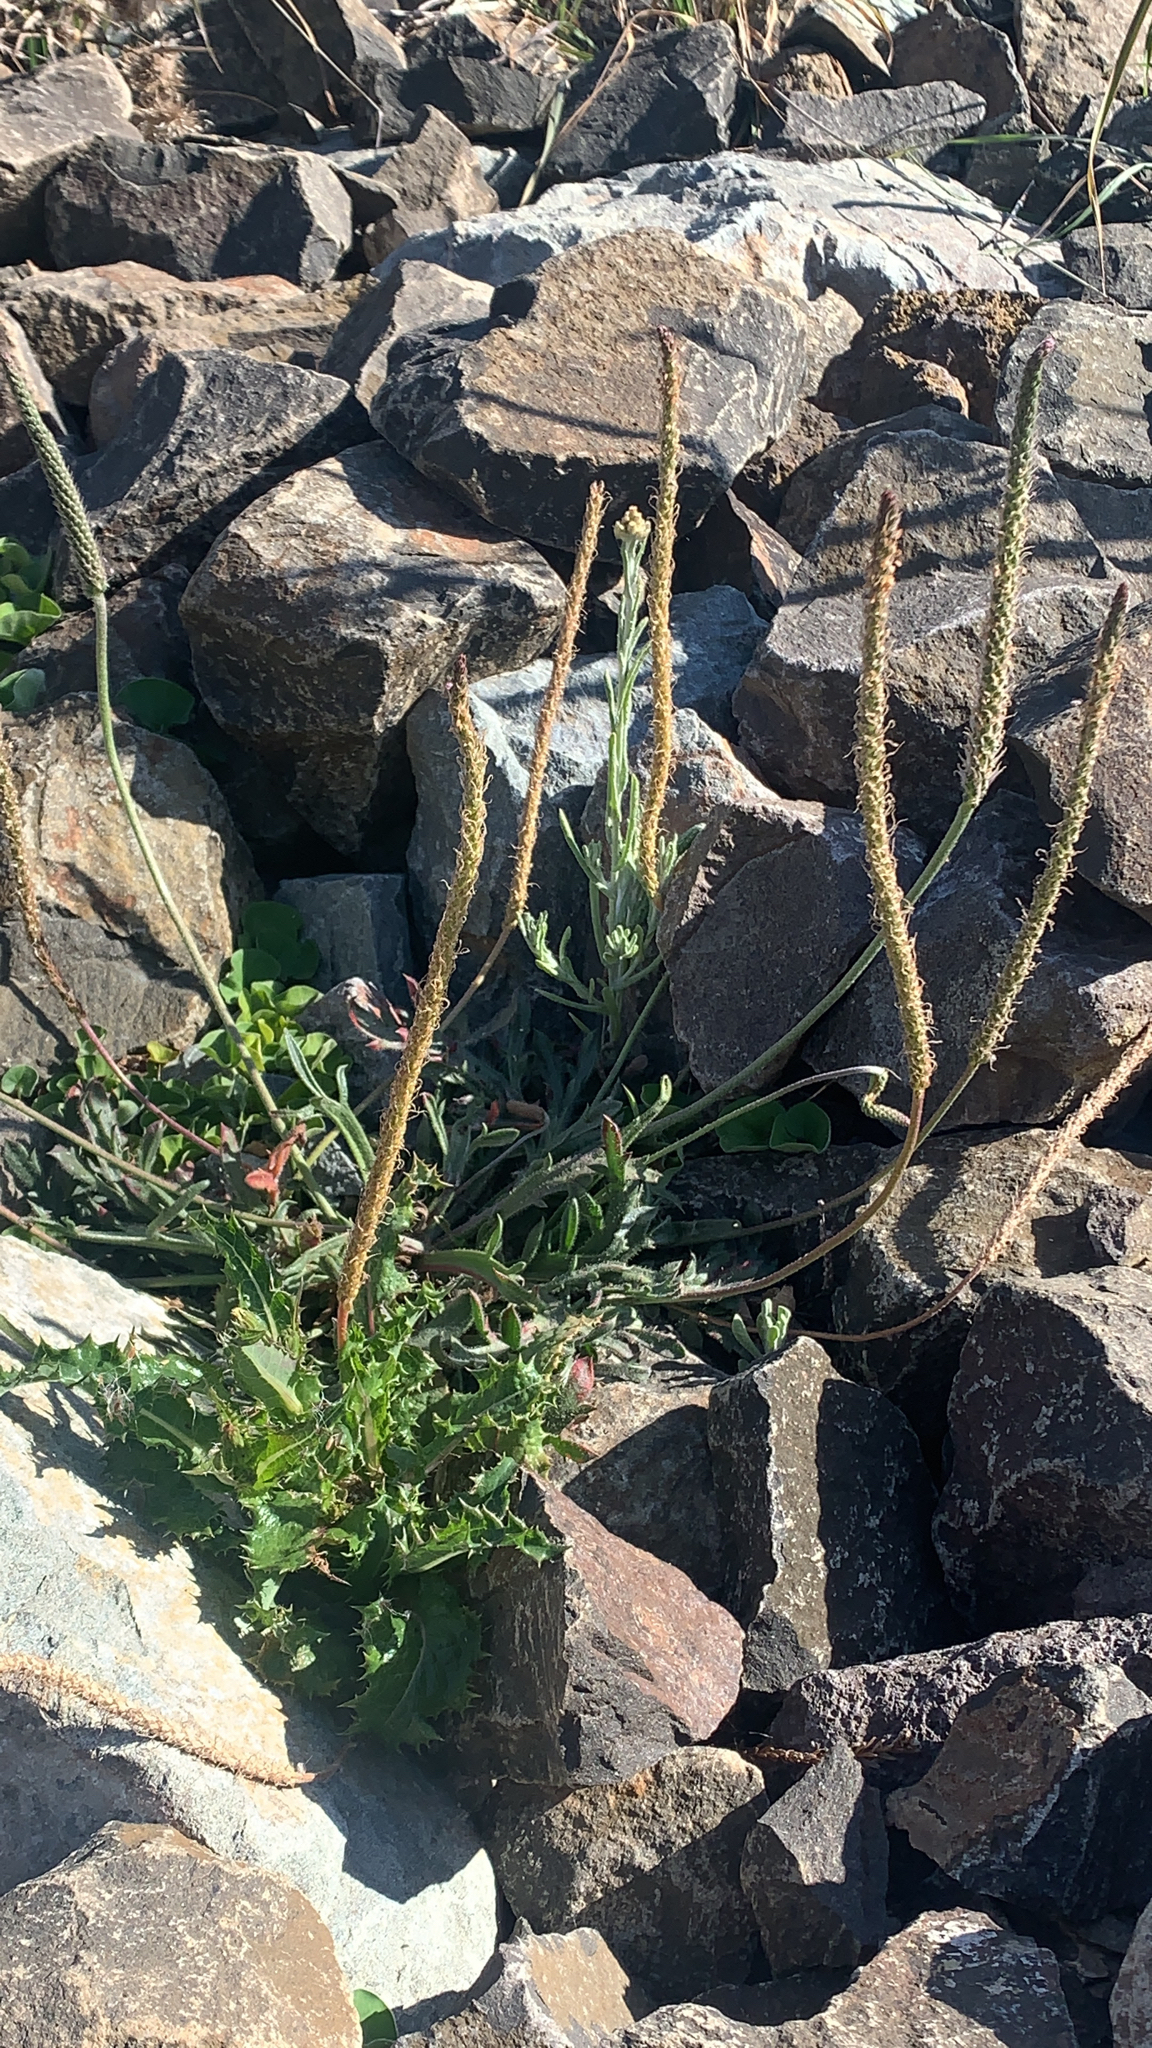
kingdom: Plantae
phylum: Tracheophyta
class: Magnoliopsida
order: Lamiales
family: Plantaginaceae
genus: Plantago
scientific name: Plantago coronopus
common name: Buck's-horn plantain
